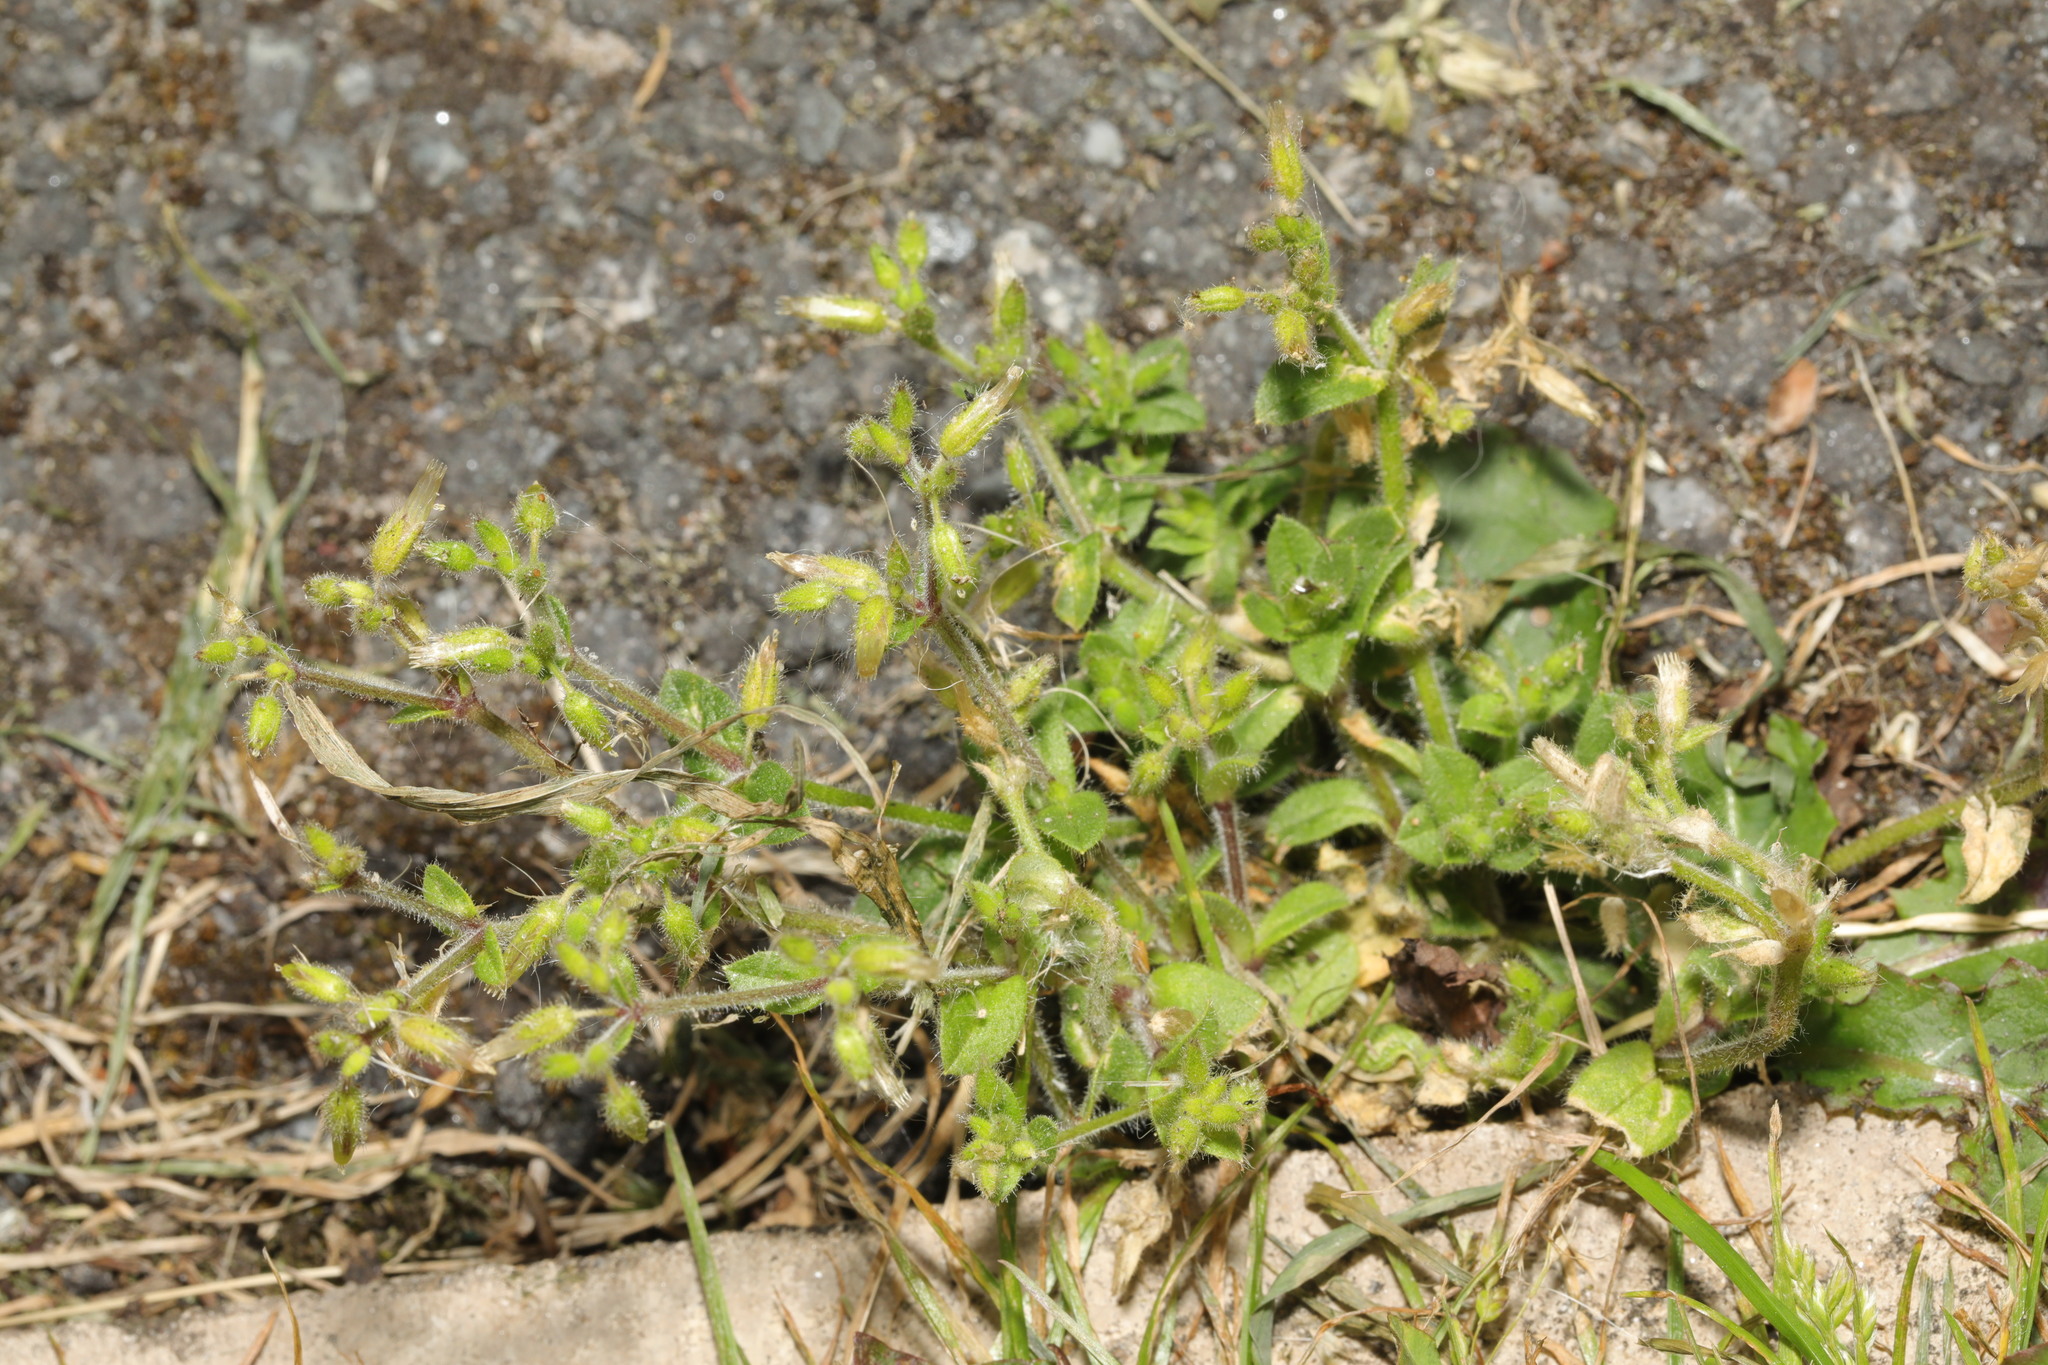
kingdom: Plantae
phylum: Tracheophyta
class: Magnoliopsida
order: Caryophyllales
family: Caryophyllaceae
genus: Cerastium
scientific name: Cerastium glomeratum
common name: Sticky chickweed
